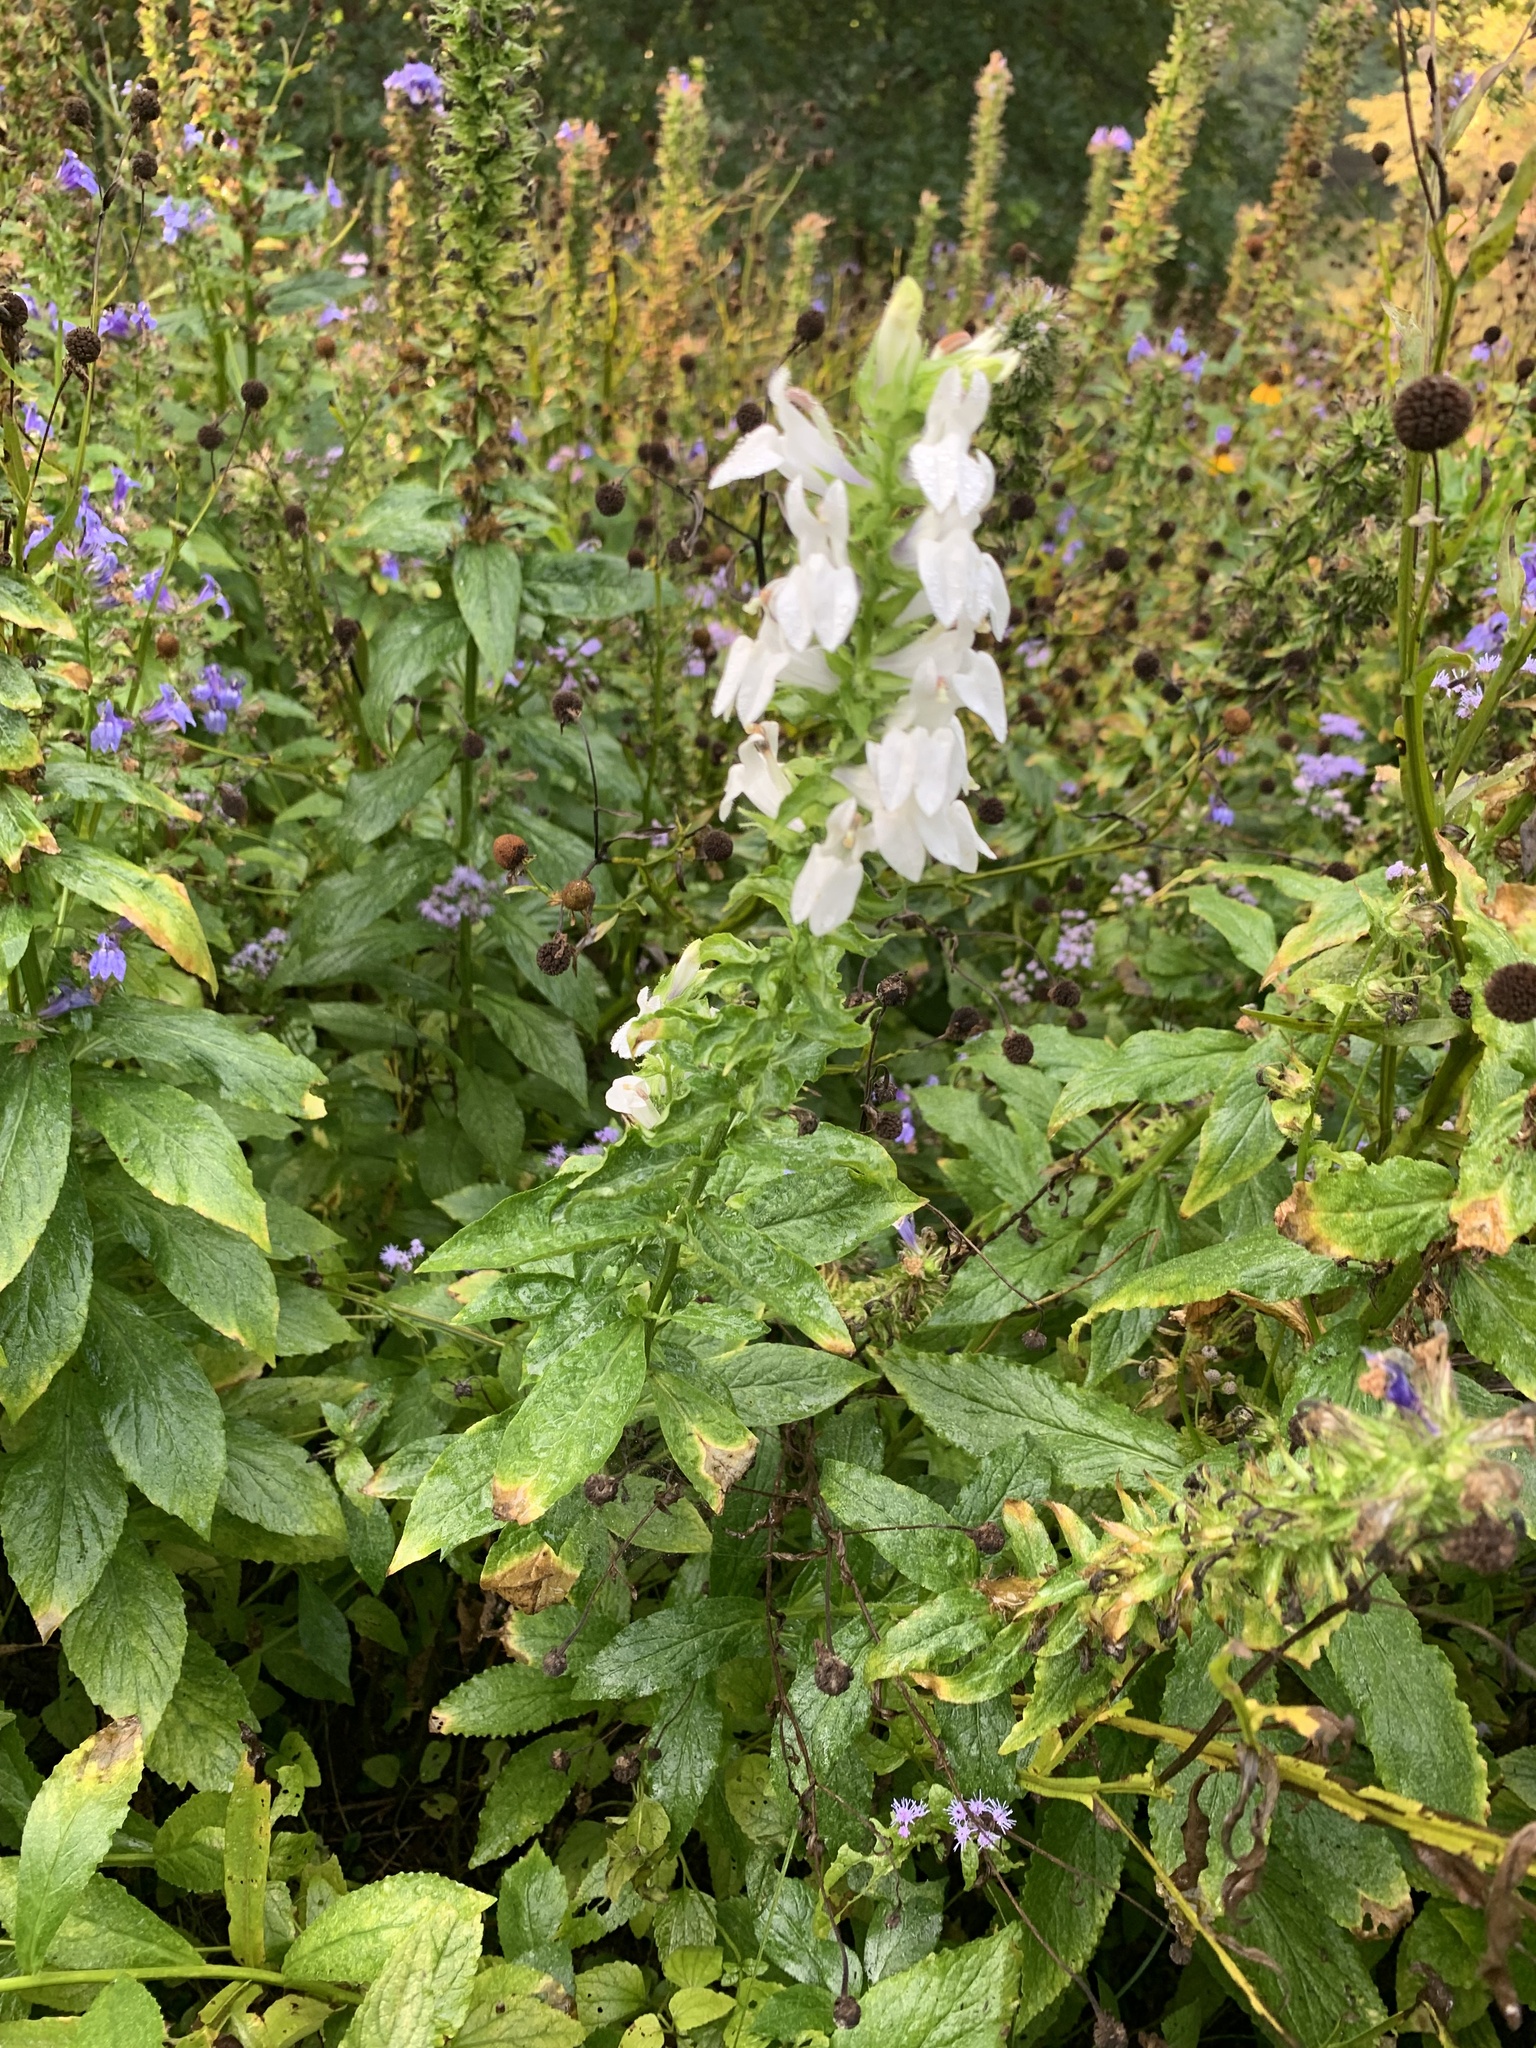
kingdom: Plantae
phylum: Tracheophyta
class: Magnoliopsida
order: Asterales
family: Campanulaceae
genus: Lobelia
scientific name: Lobelia siphilitica
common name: Great lobelia
